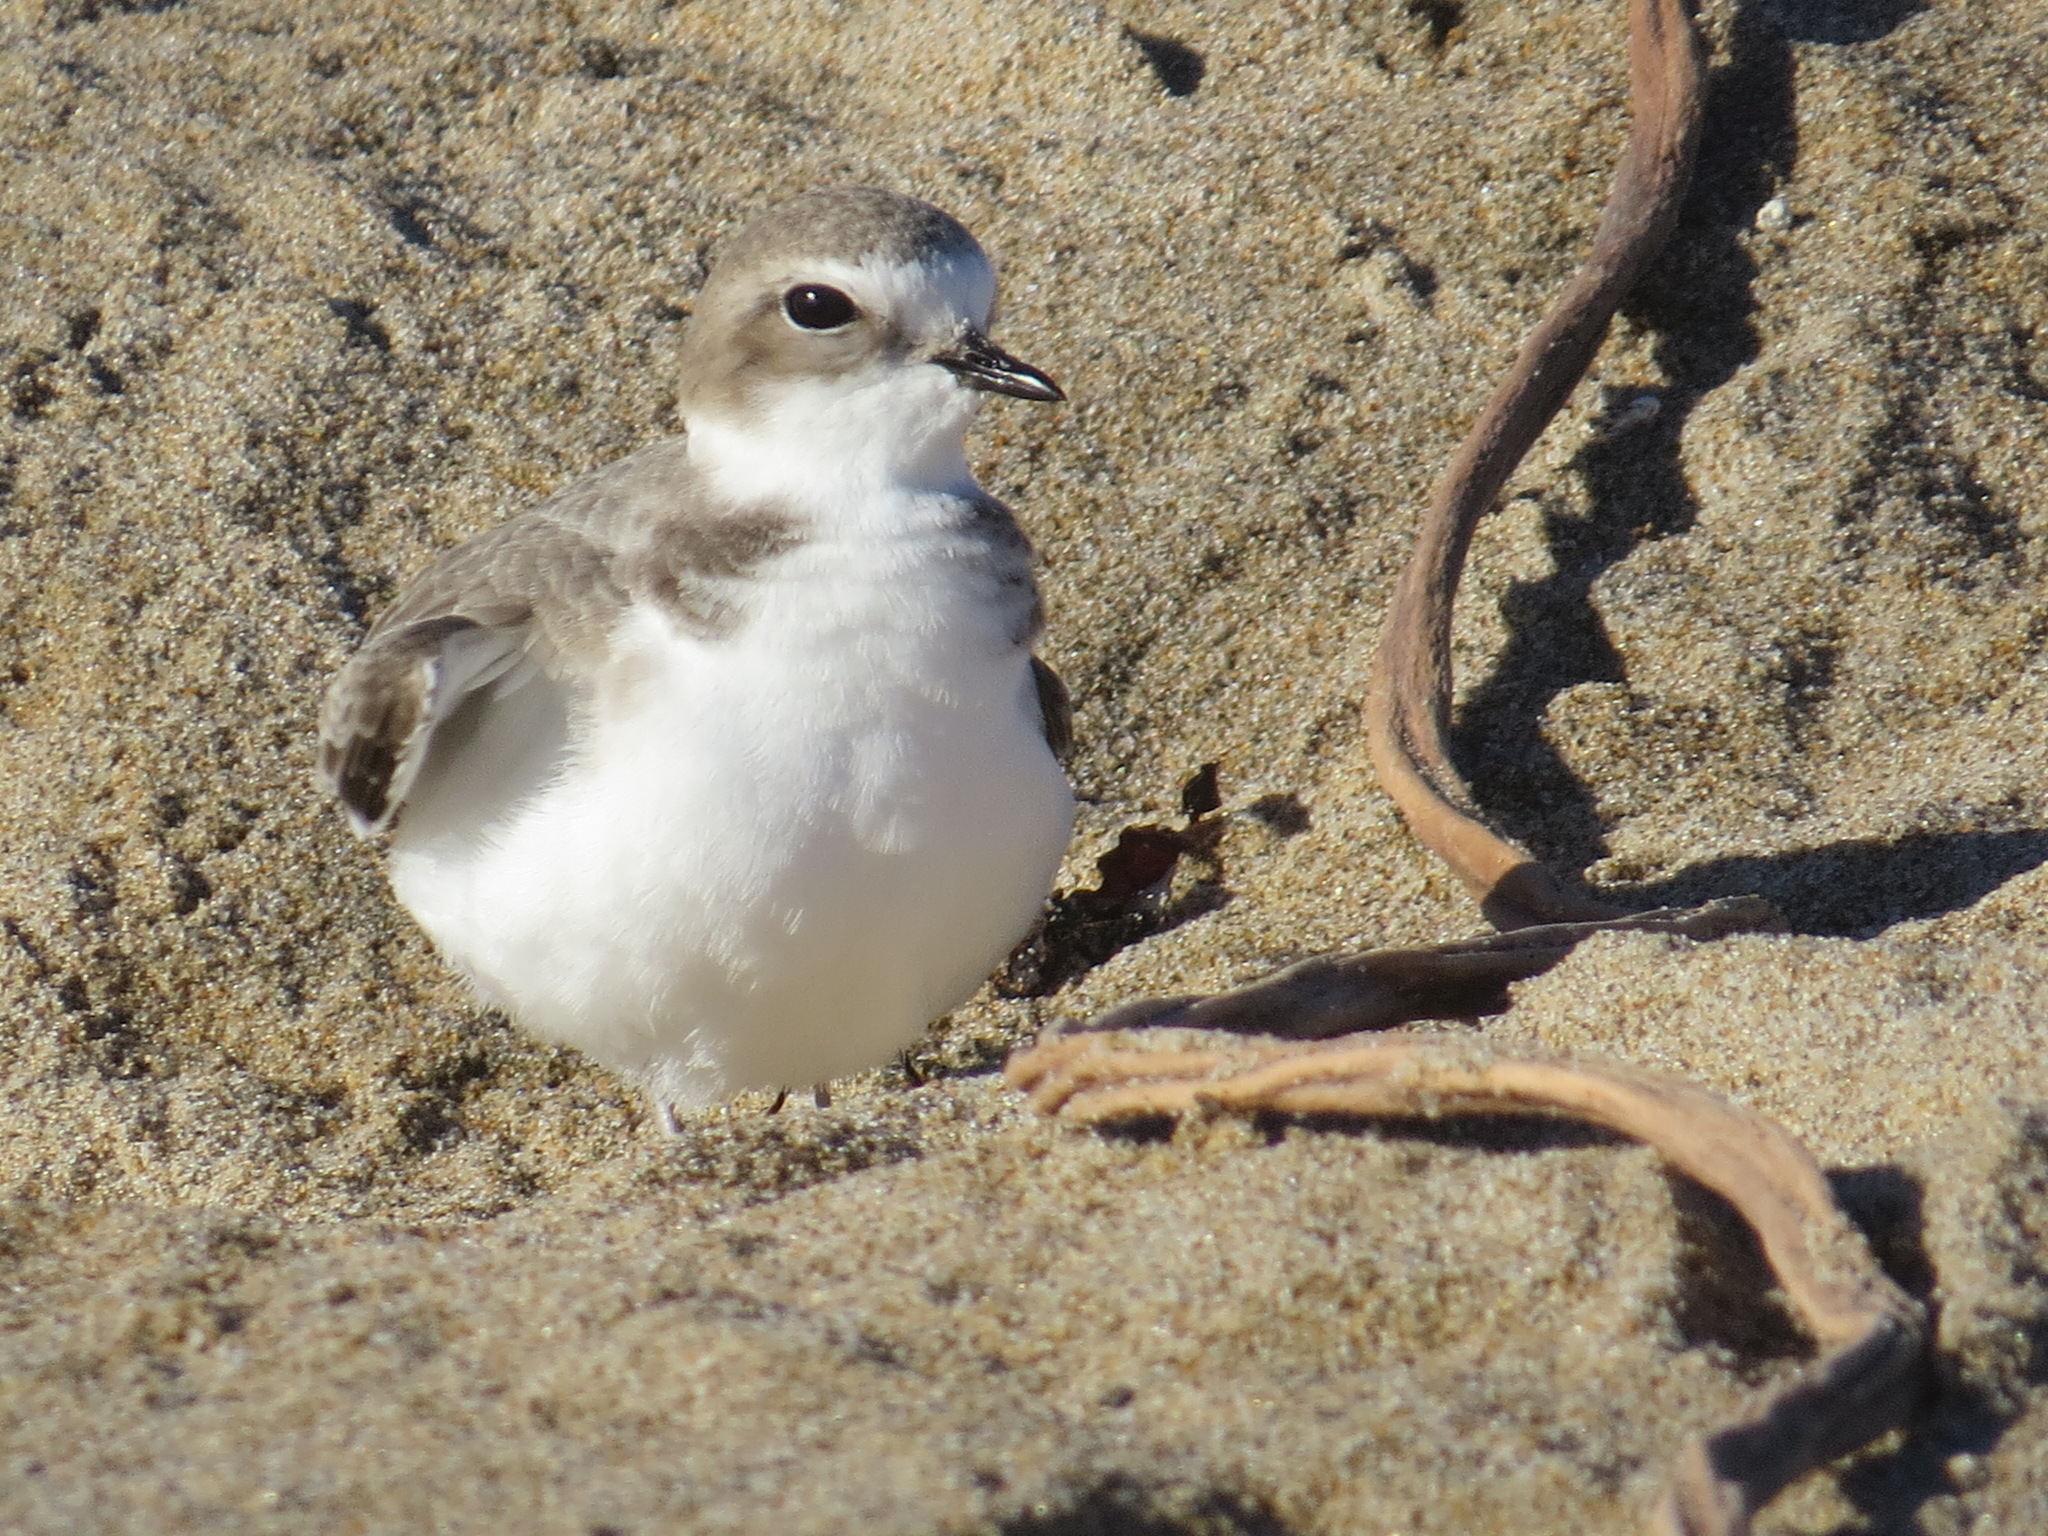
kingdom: Animalia
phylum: Chordata
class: Aves
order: Charadriiformes
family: Charadriidae
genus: Anarhynchus
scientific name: Anarhynchus
